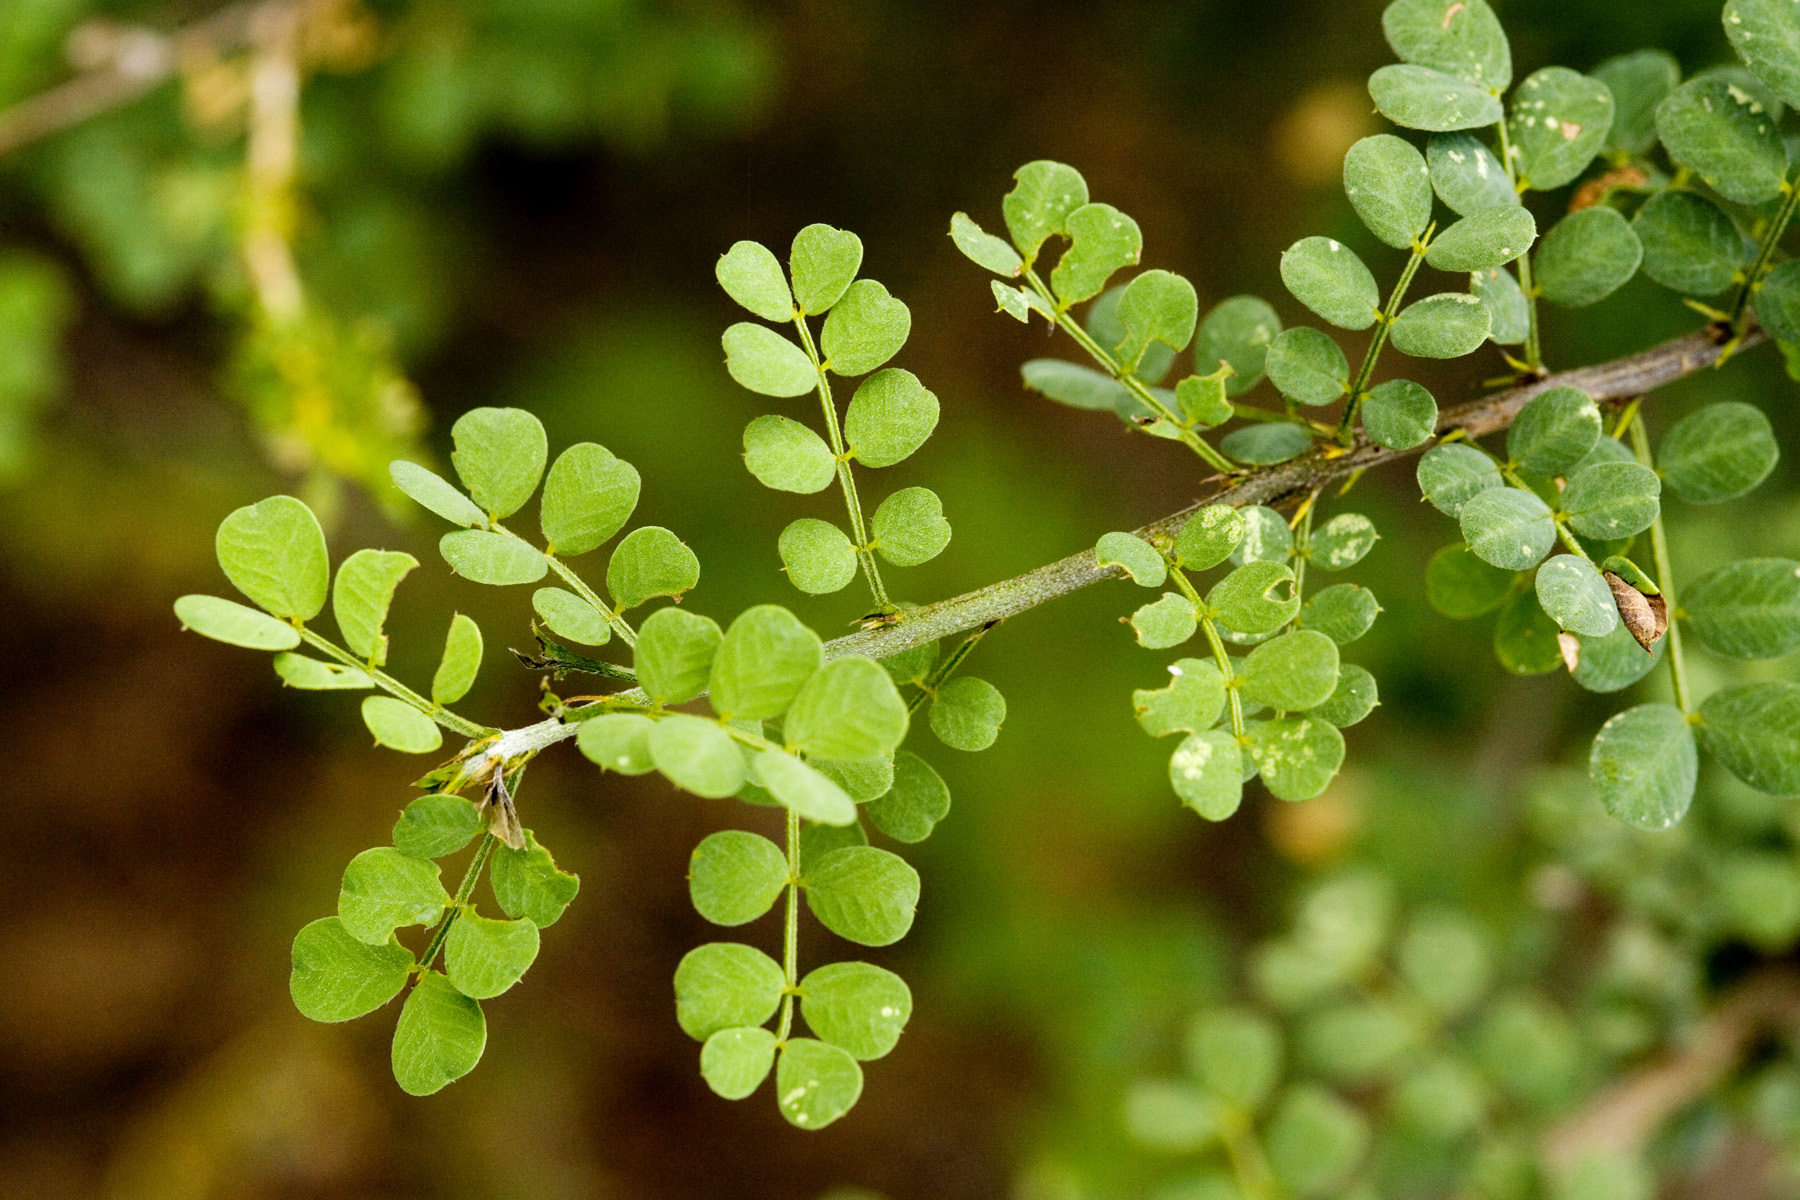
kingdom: Plantae
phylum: Tracheophyta
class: Magnoliopsida
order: Fabales
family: Fabaceae
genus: Senna
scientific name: Senna wislizeni
